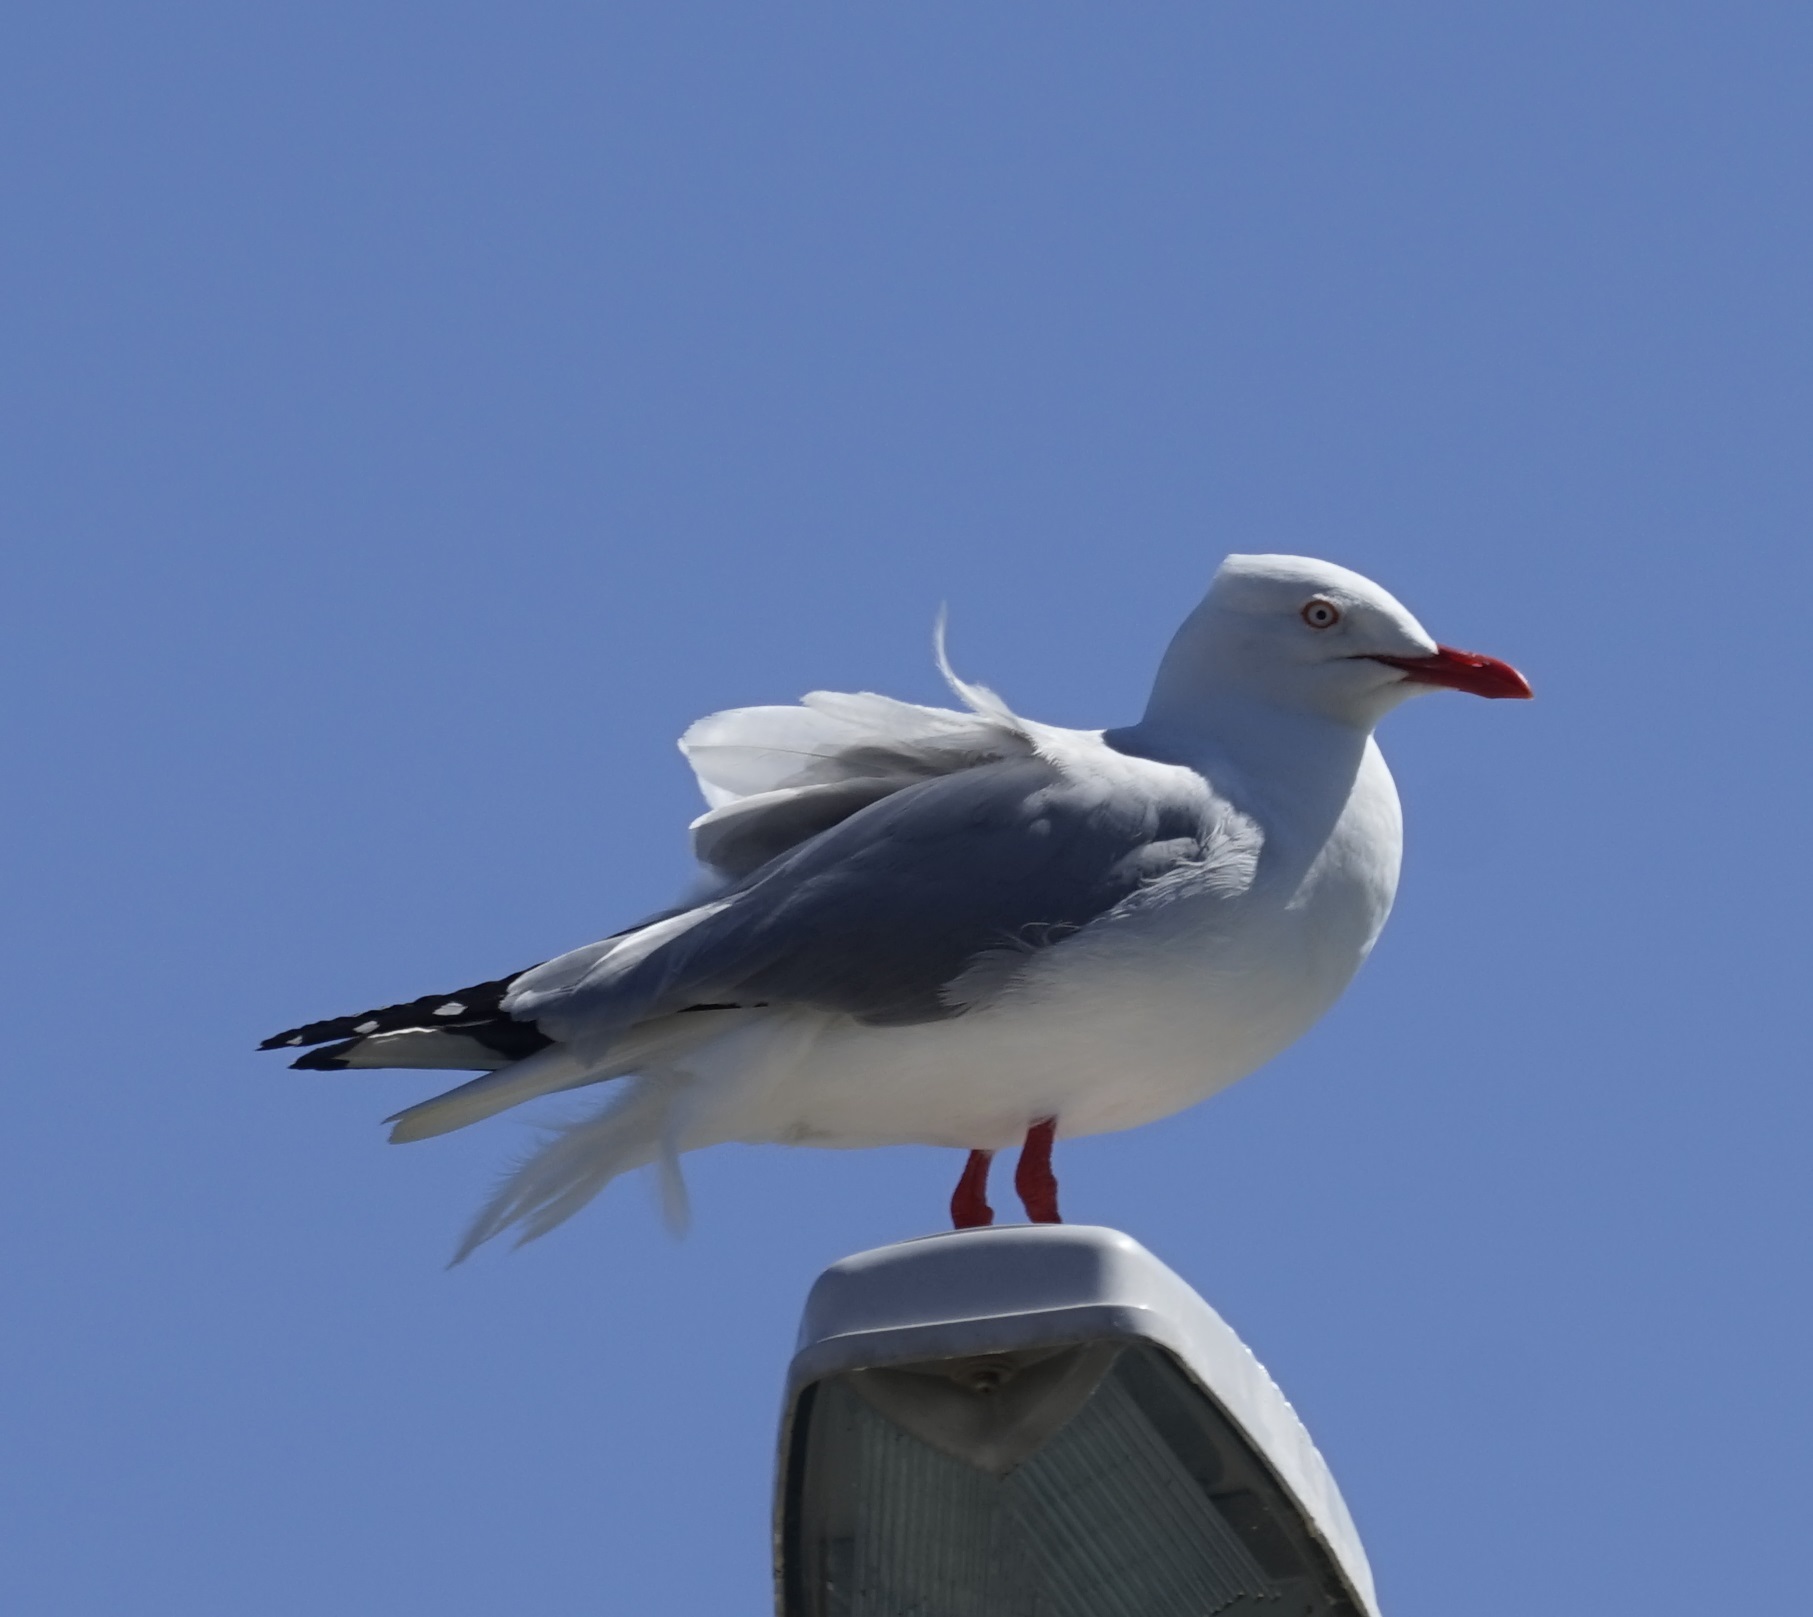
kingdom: Animalia
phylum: Chordata
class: Aves
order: Charadriiformes
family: Laridae
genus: Chroicocephalus
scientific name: Chroicocephalus novaehollandiae
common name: Silver gull
